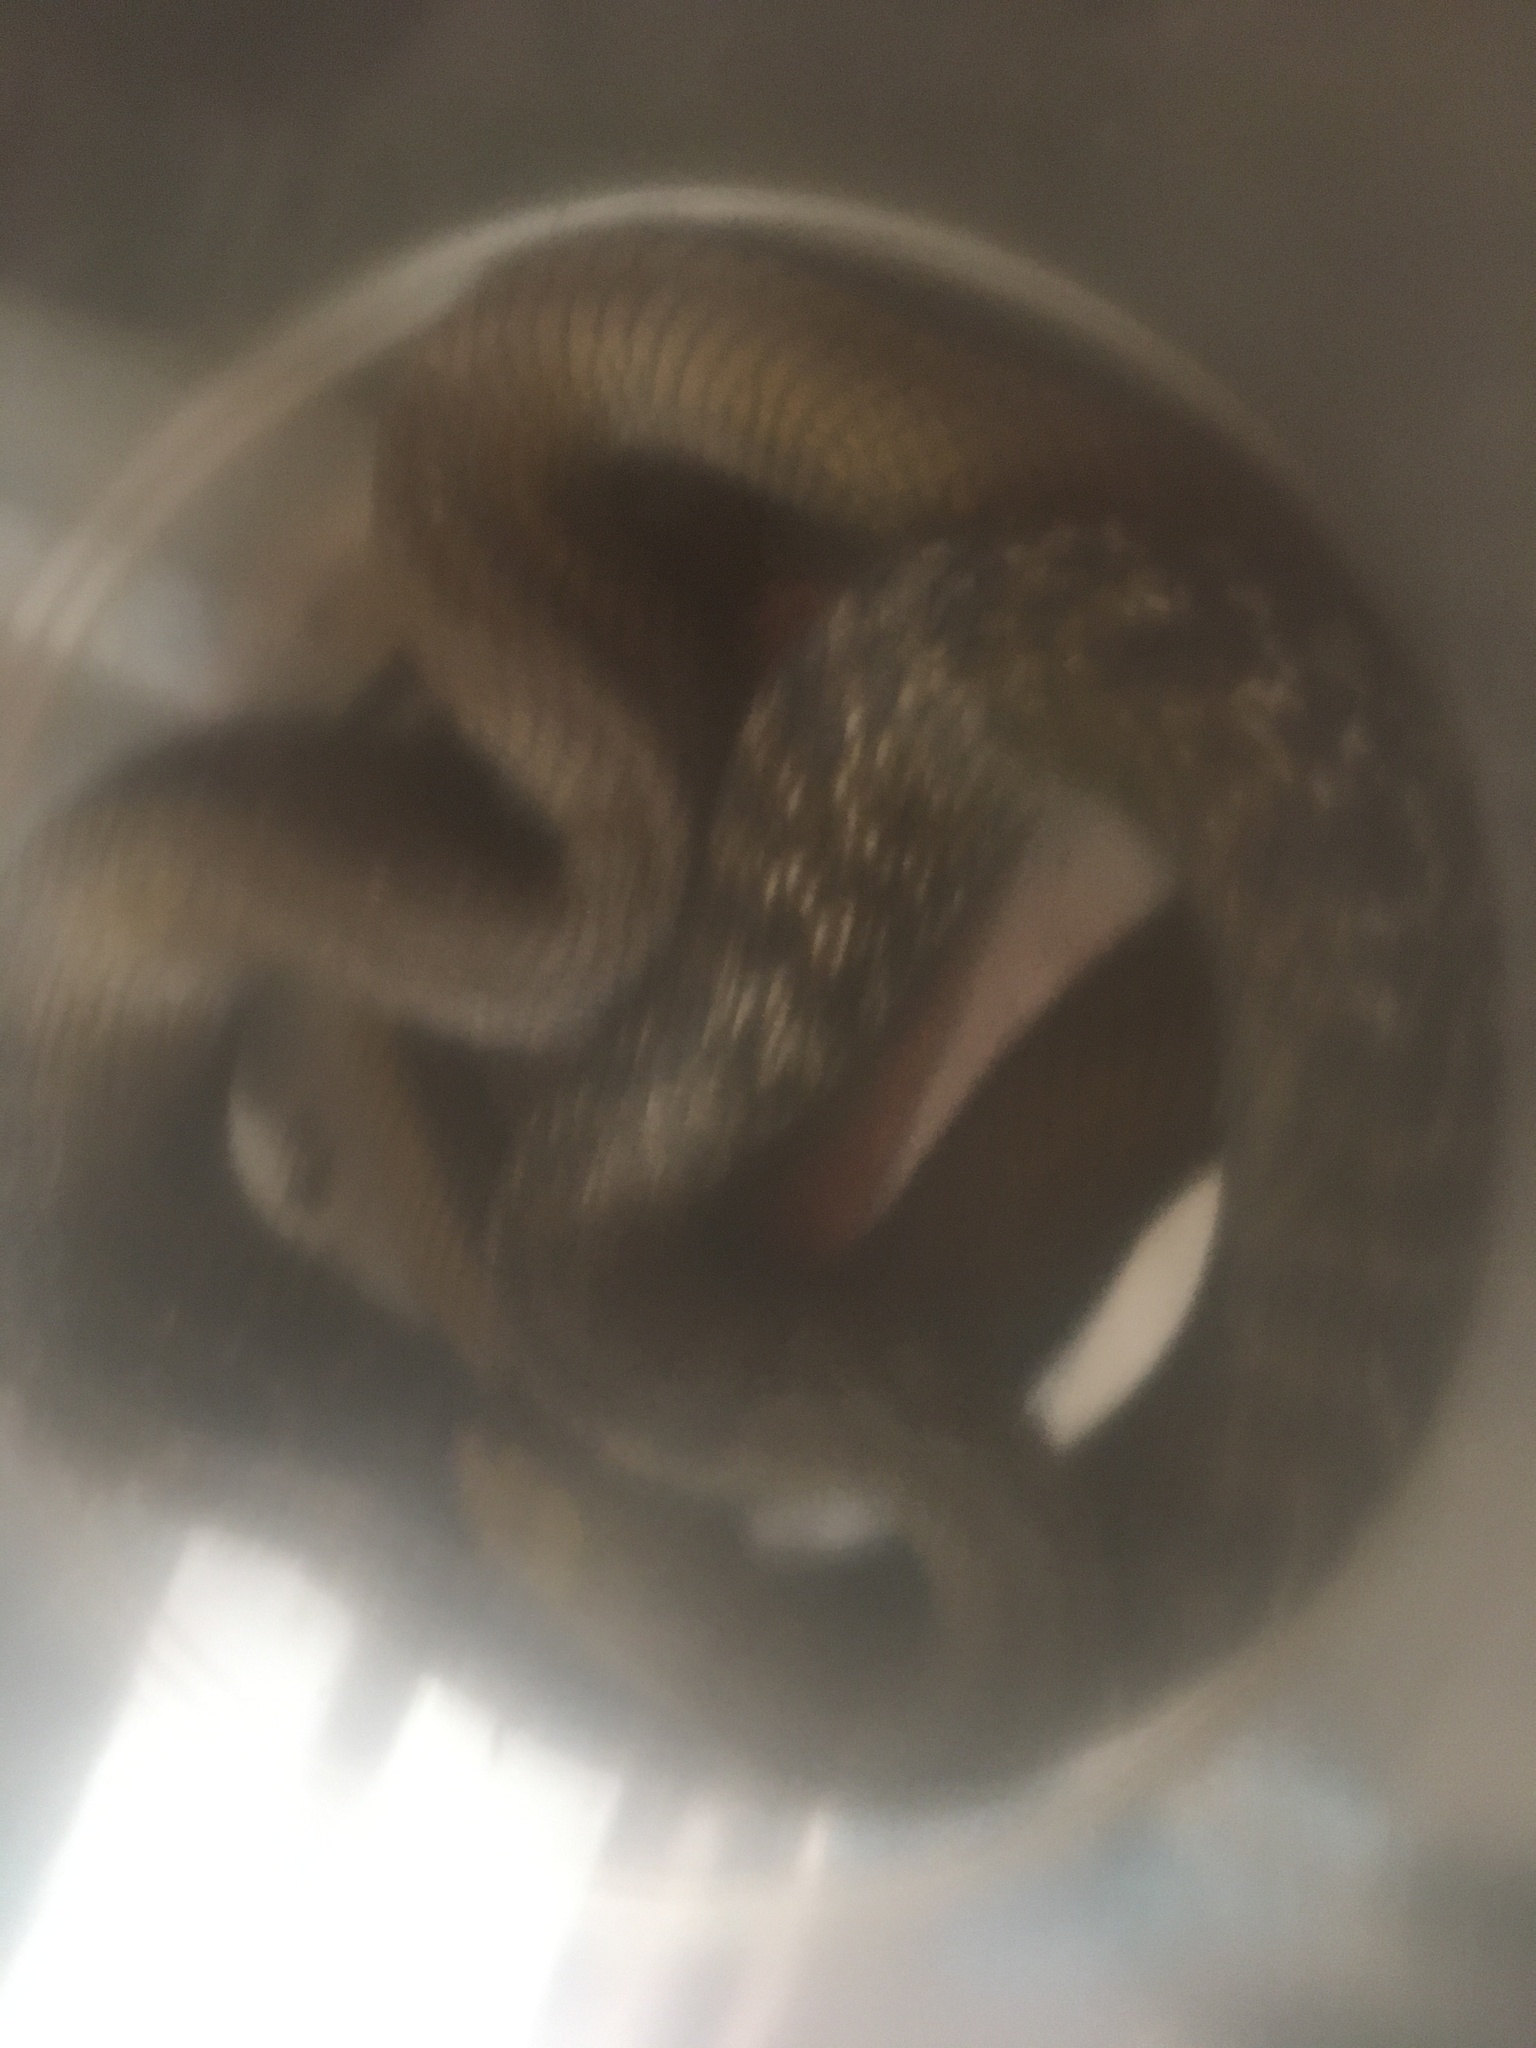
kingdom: Animalia
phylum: Chordata
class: Squamata
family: Colubridae
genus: Elaphe
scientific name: Elaphe carinata
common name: Taiwan stink snake
